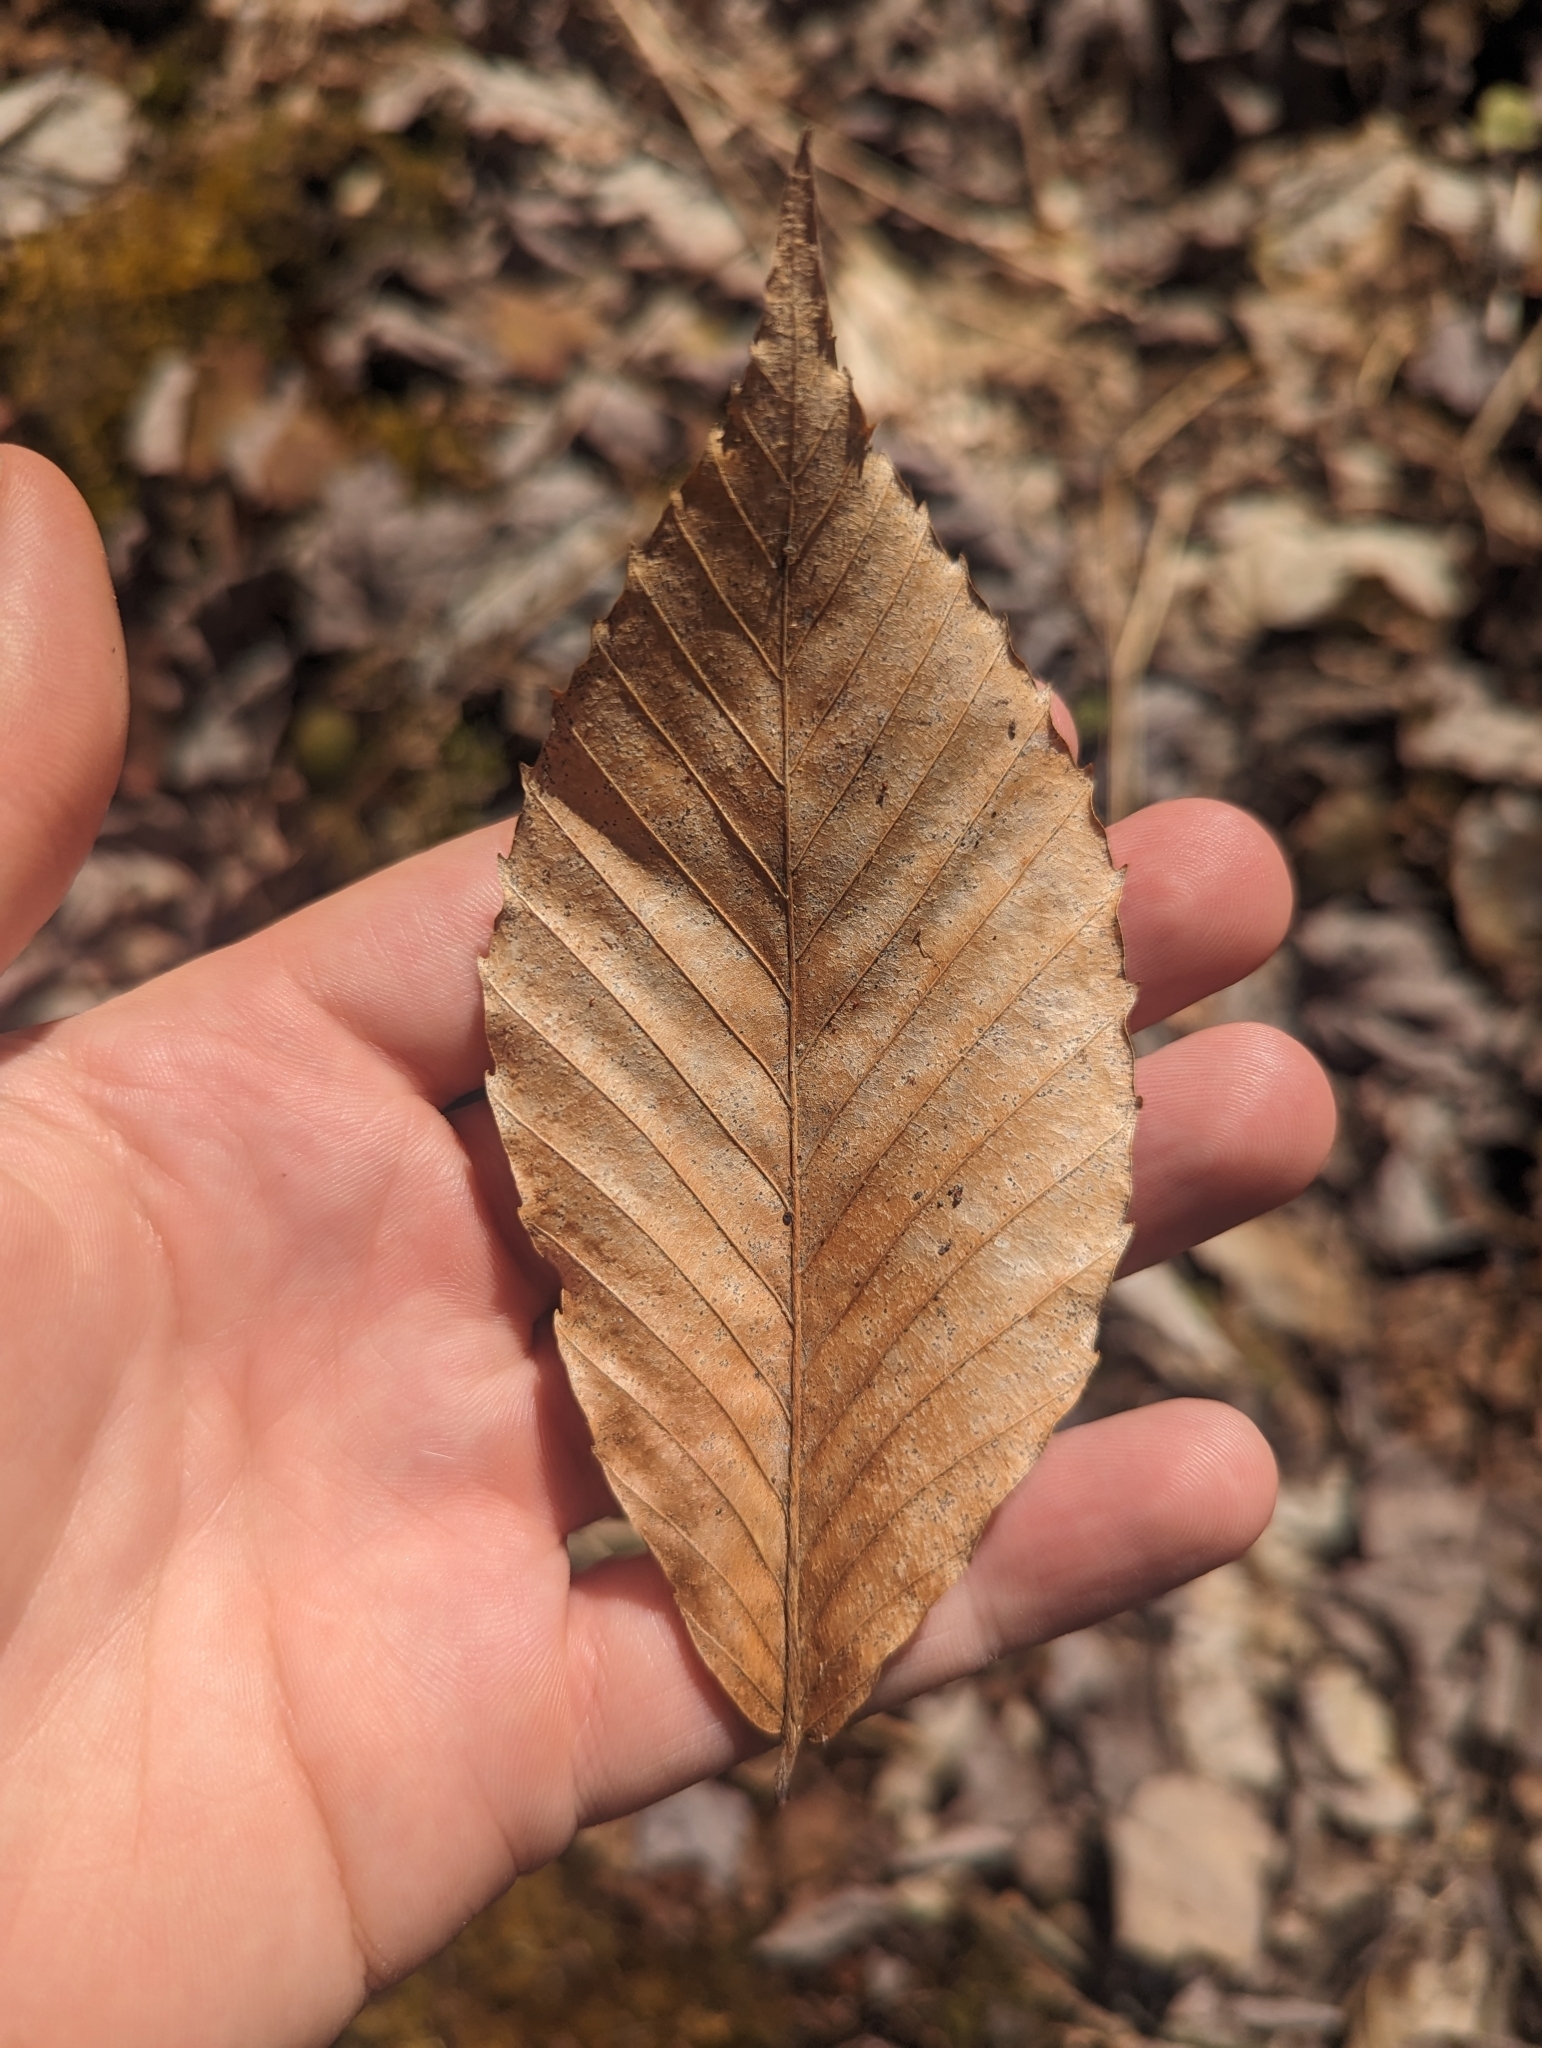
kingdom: Plantae
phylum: Tracheophyta
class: Magnoliopsida
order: Fagales
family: Fagaceae
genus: Fagus
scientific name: Fagus grandifolia
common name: American beech
